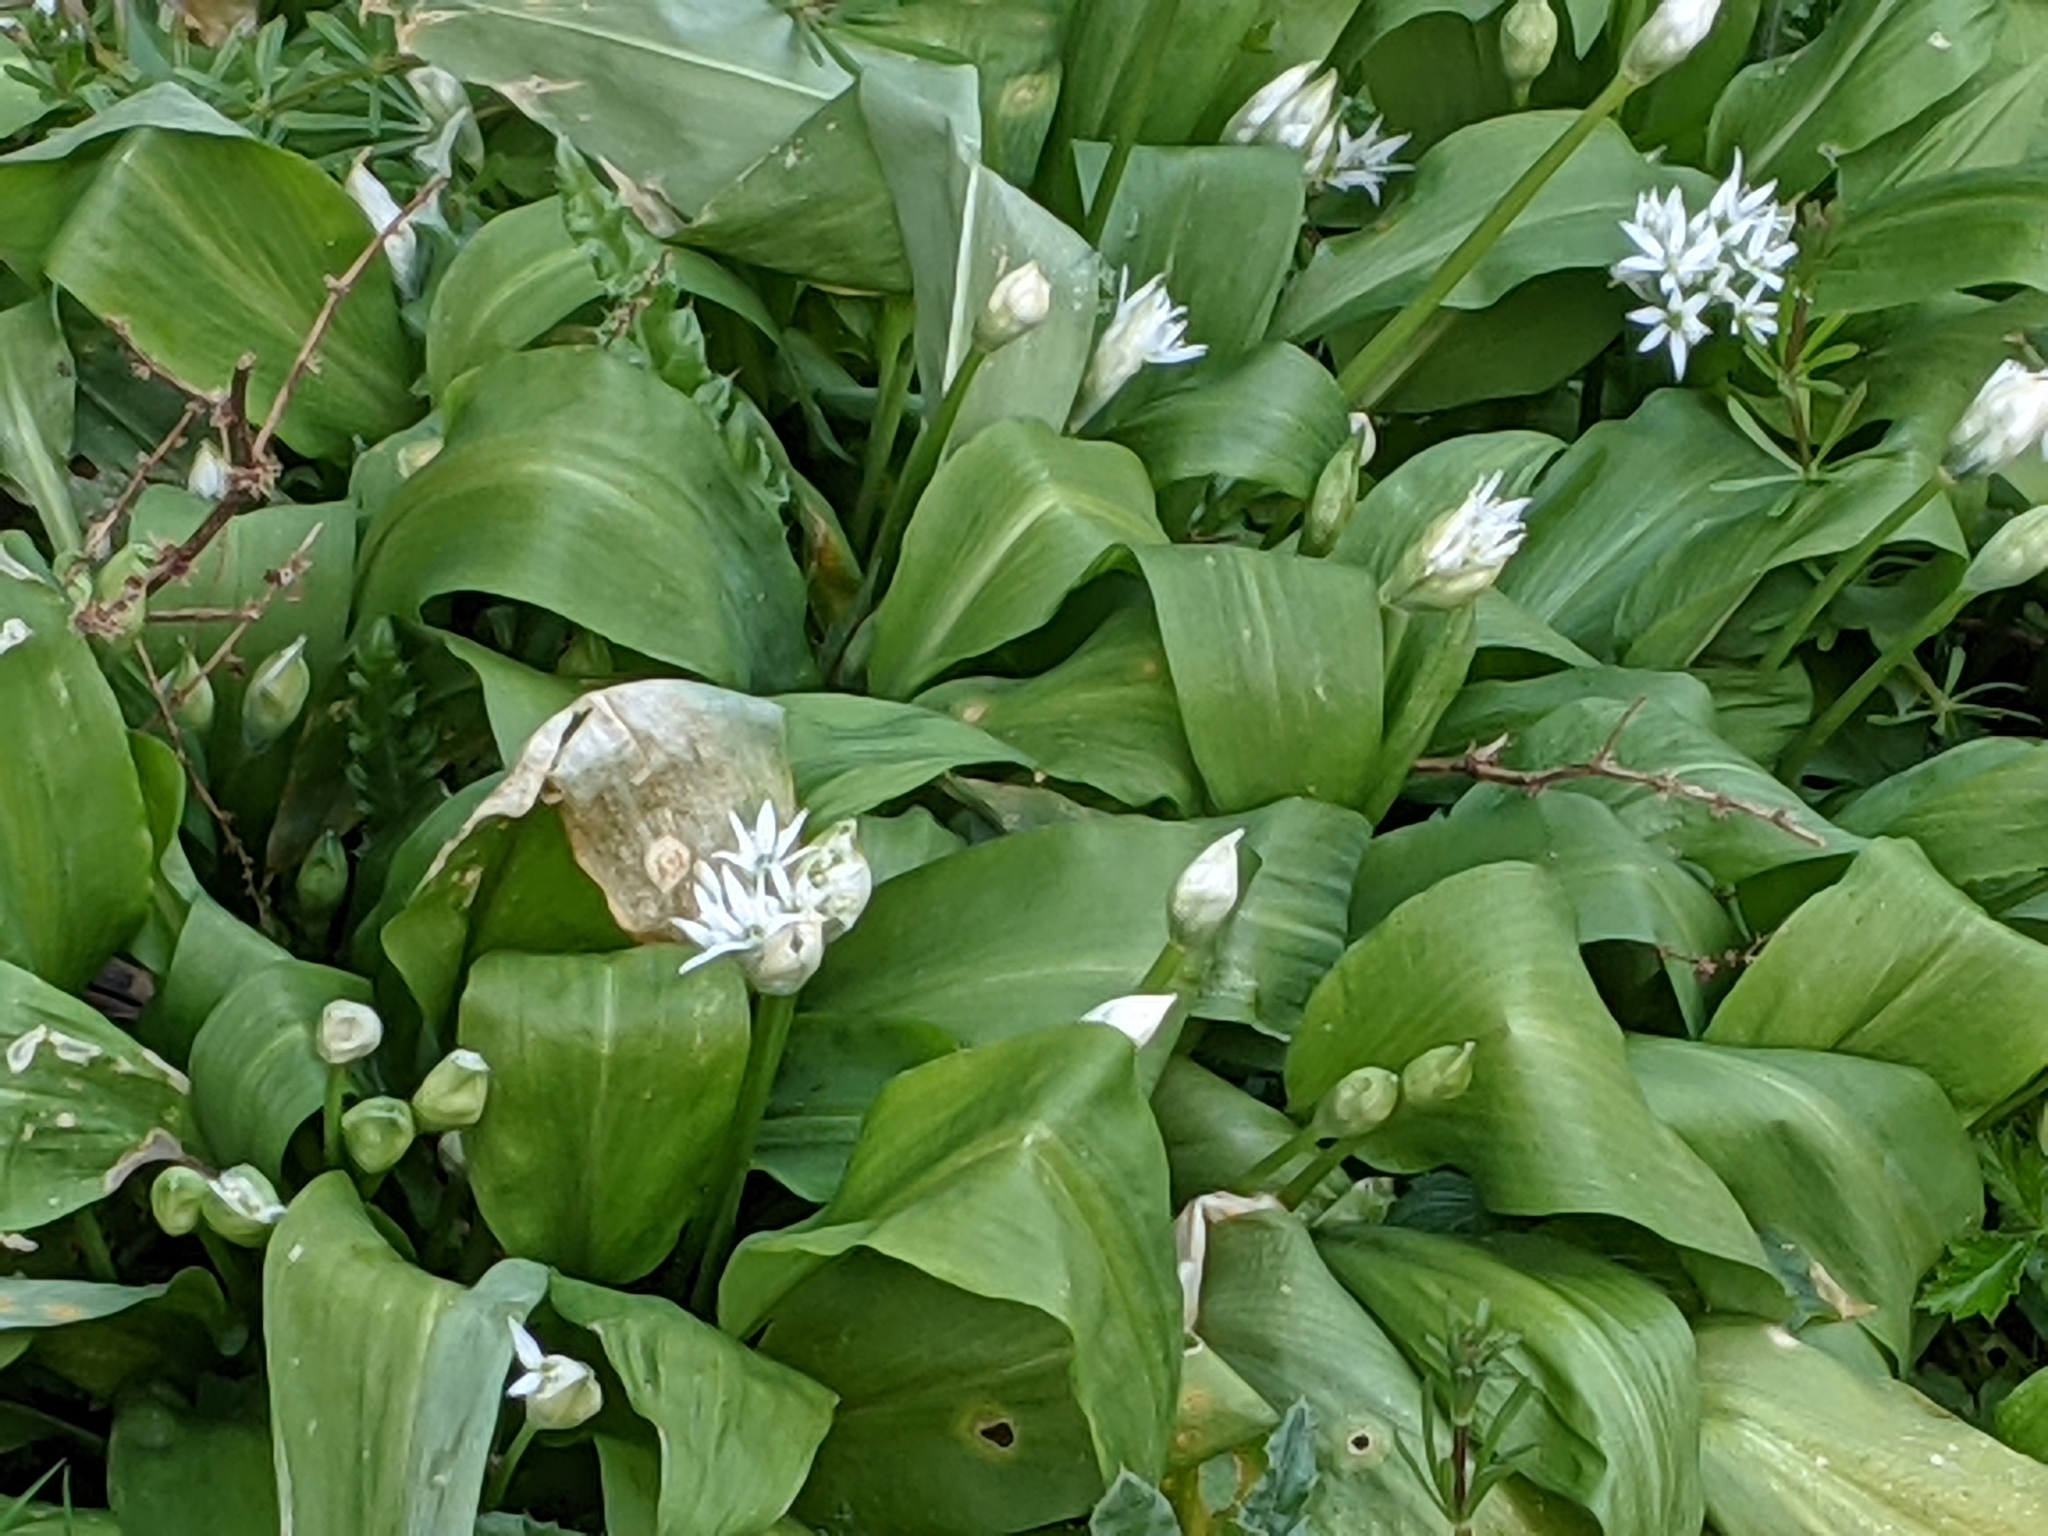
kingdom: Plantae
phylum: Tracheophyta
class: Liliopsida
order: Asparagales
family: Amaryllidaceae
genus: Allium
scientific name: Allium ursinum
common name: Ramsons
